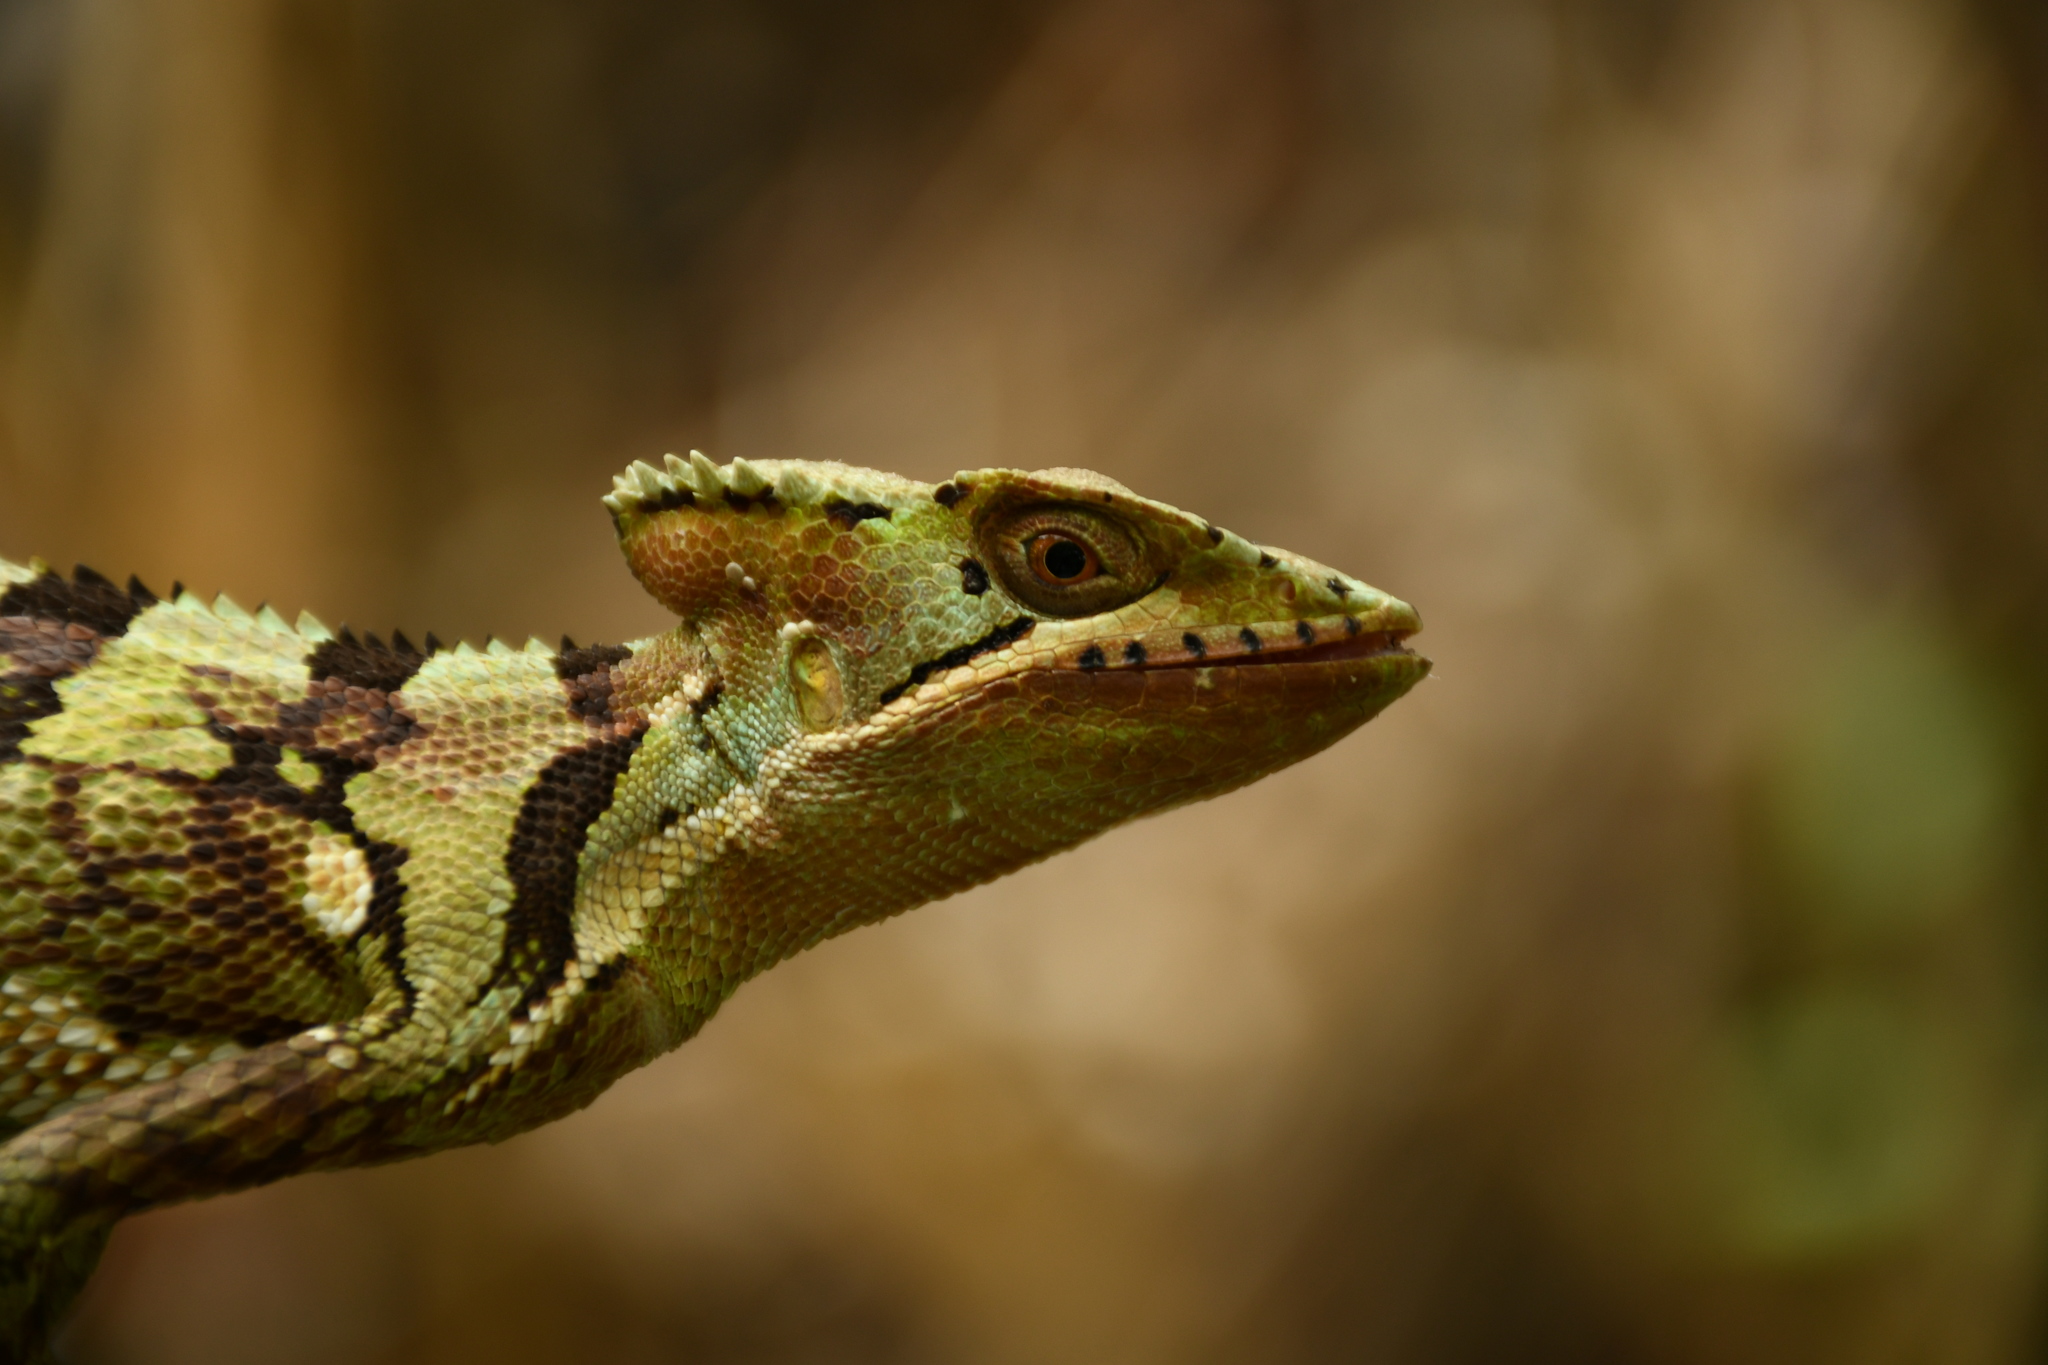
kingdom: Animalia
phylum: Chordata
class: Squamata
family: Corytophanidae
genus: Laemanctus
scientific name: Laemanctus serratus
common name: Serrated casquehead iguana
